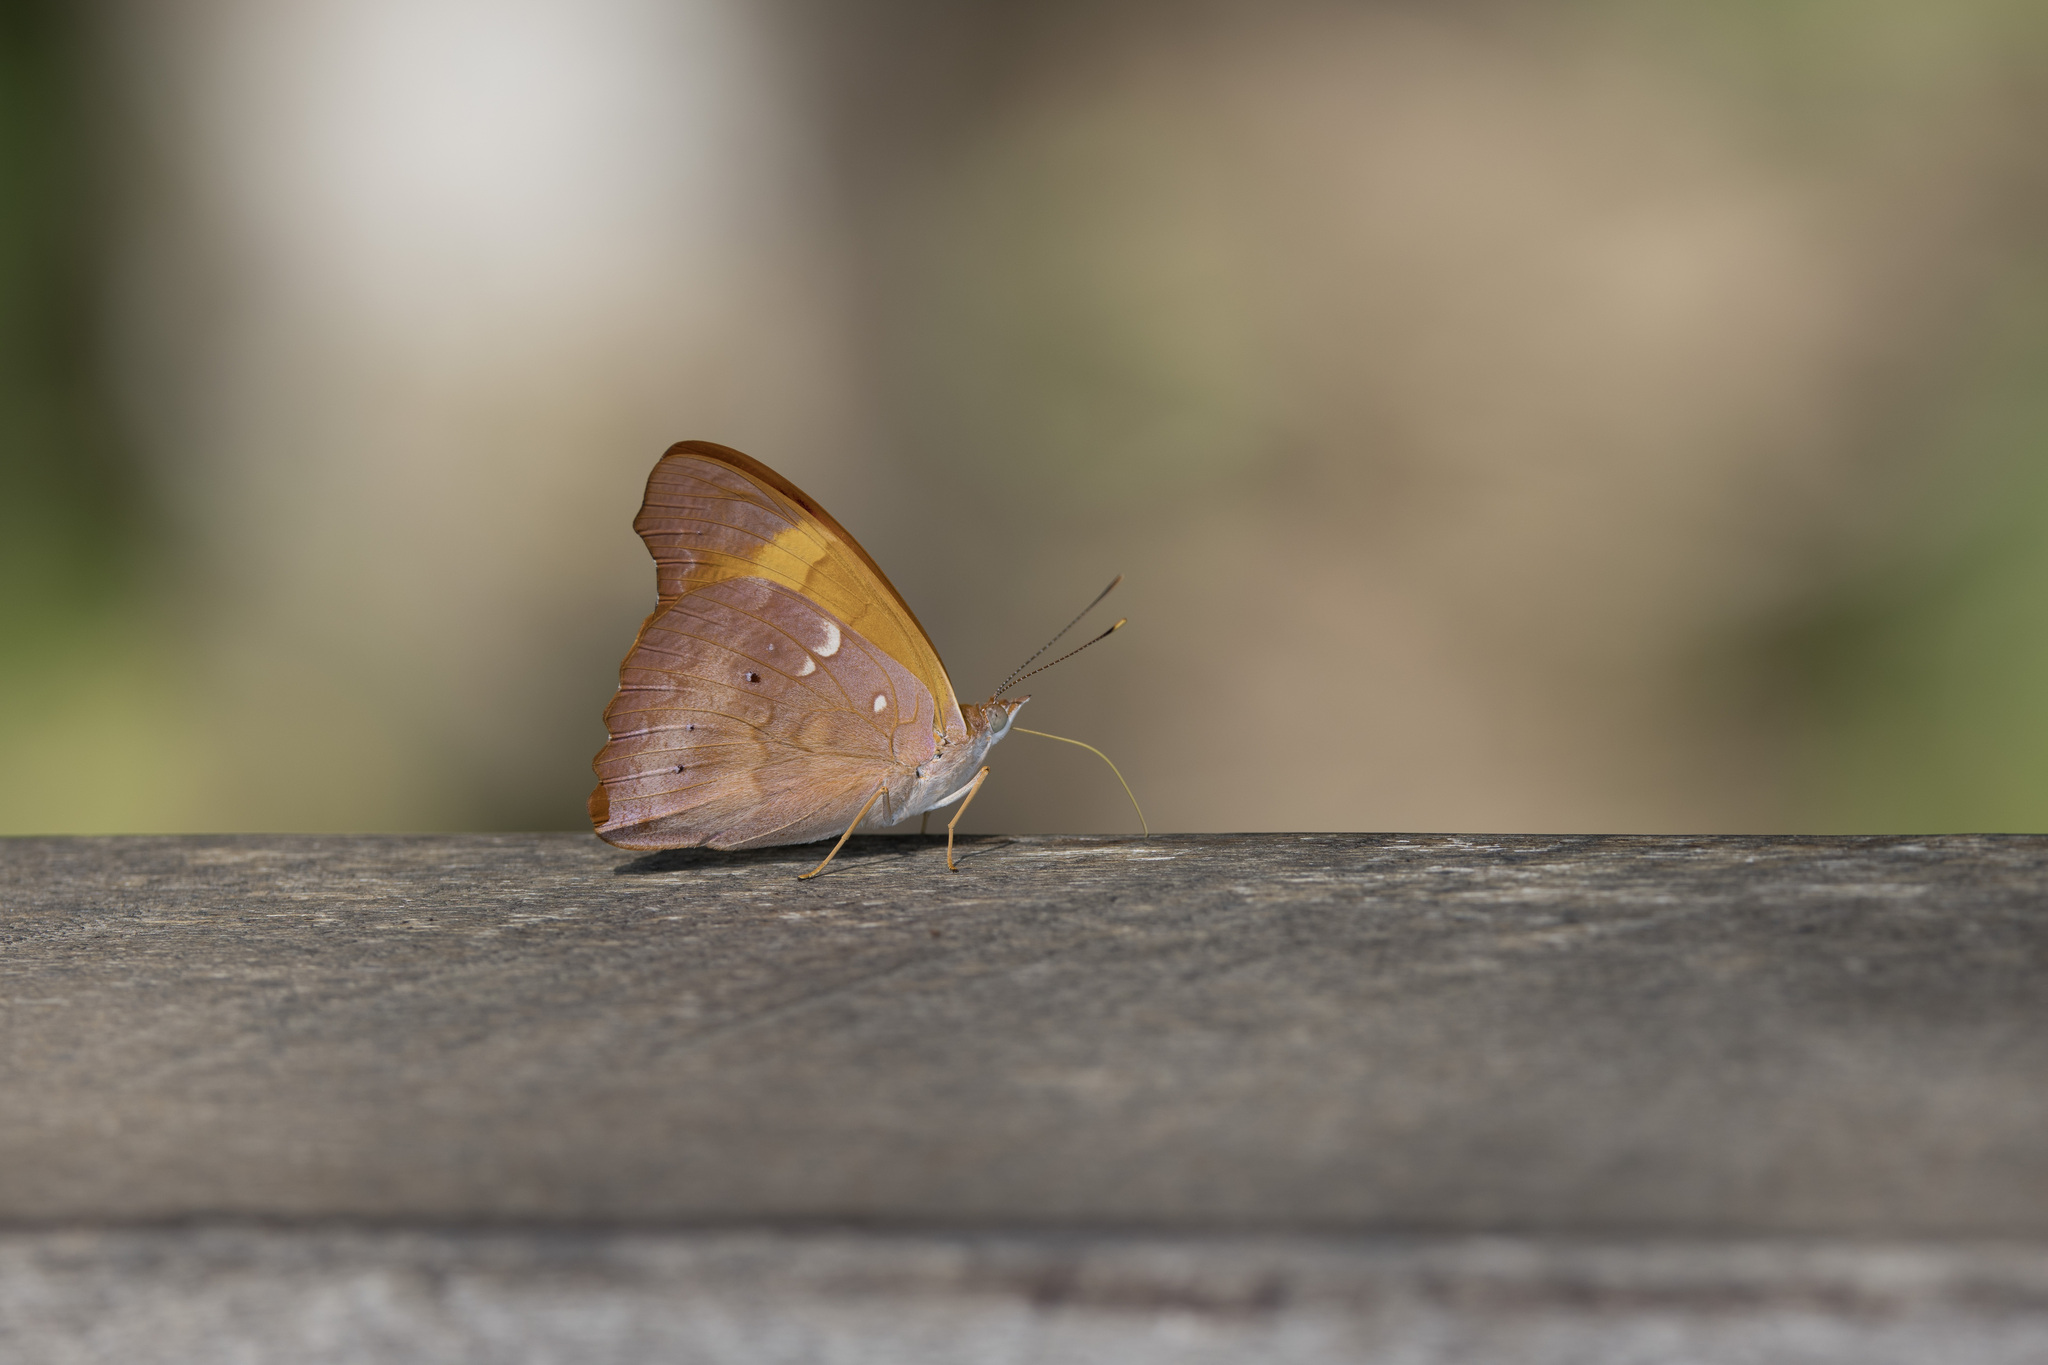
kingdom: Animalia
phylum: Arthropoda
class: Insecta
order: Lepidoptera
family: Nymphalidae
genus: Temenis
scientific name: Temenis laothoe
